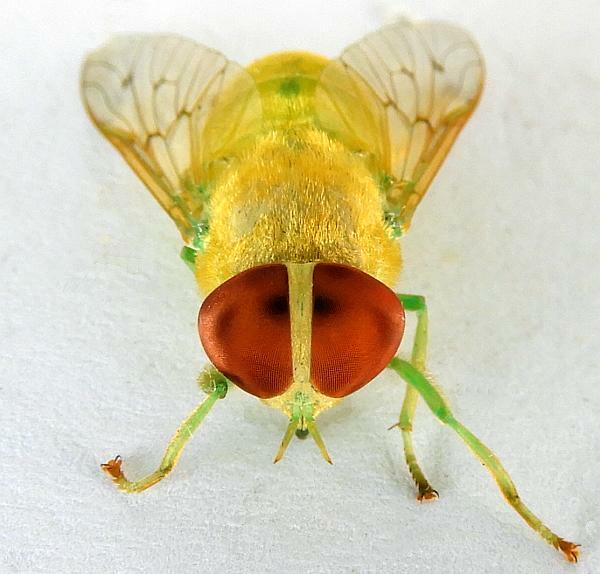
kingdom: Animalia
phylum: Arthropoda
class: Insecta
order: Diptera
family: Tabanidae
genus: Chlorotabanus
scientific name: Chlorotabanus crepuscularis
